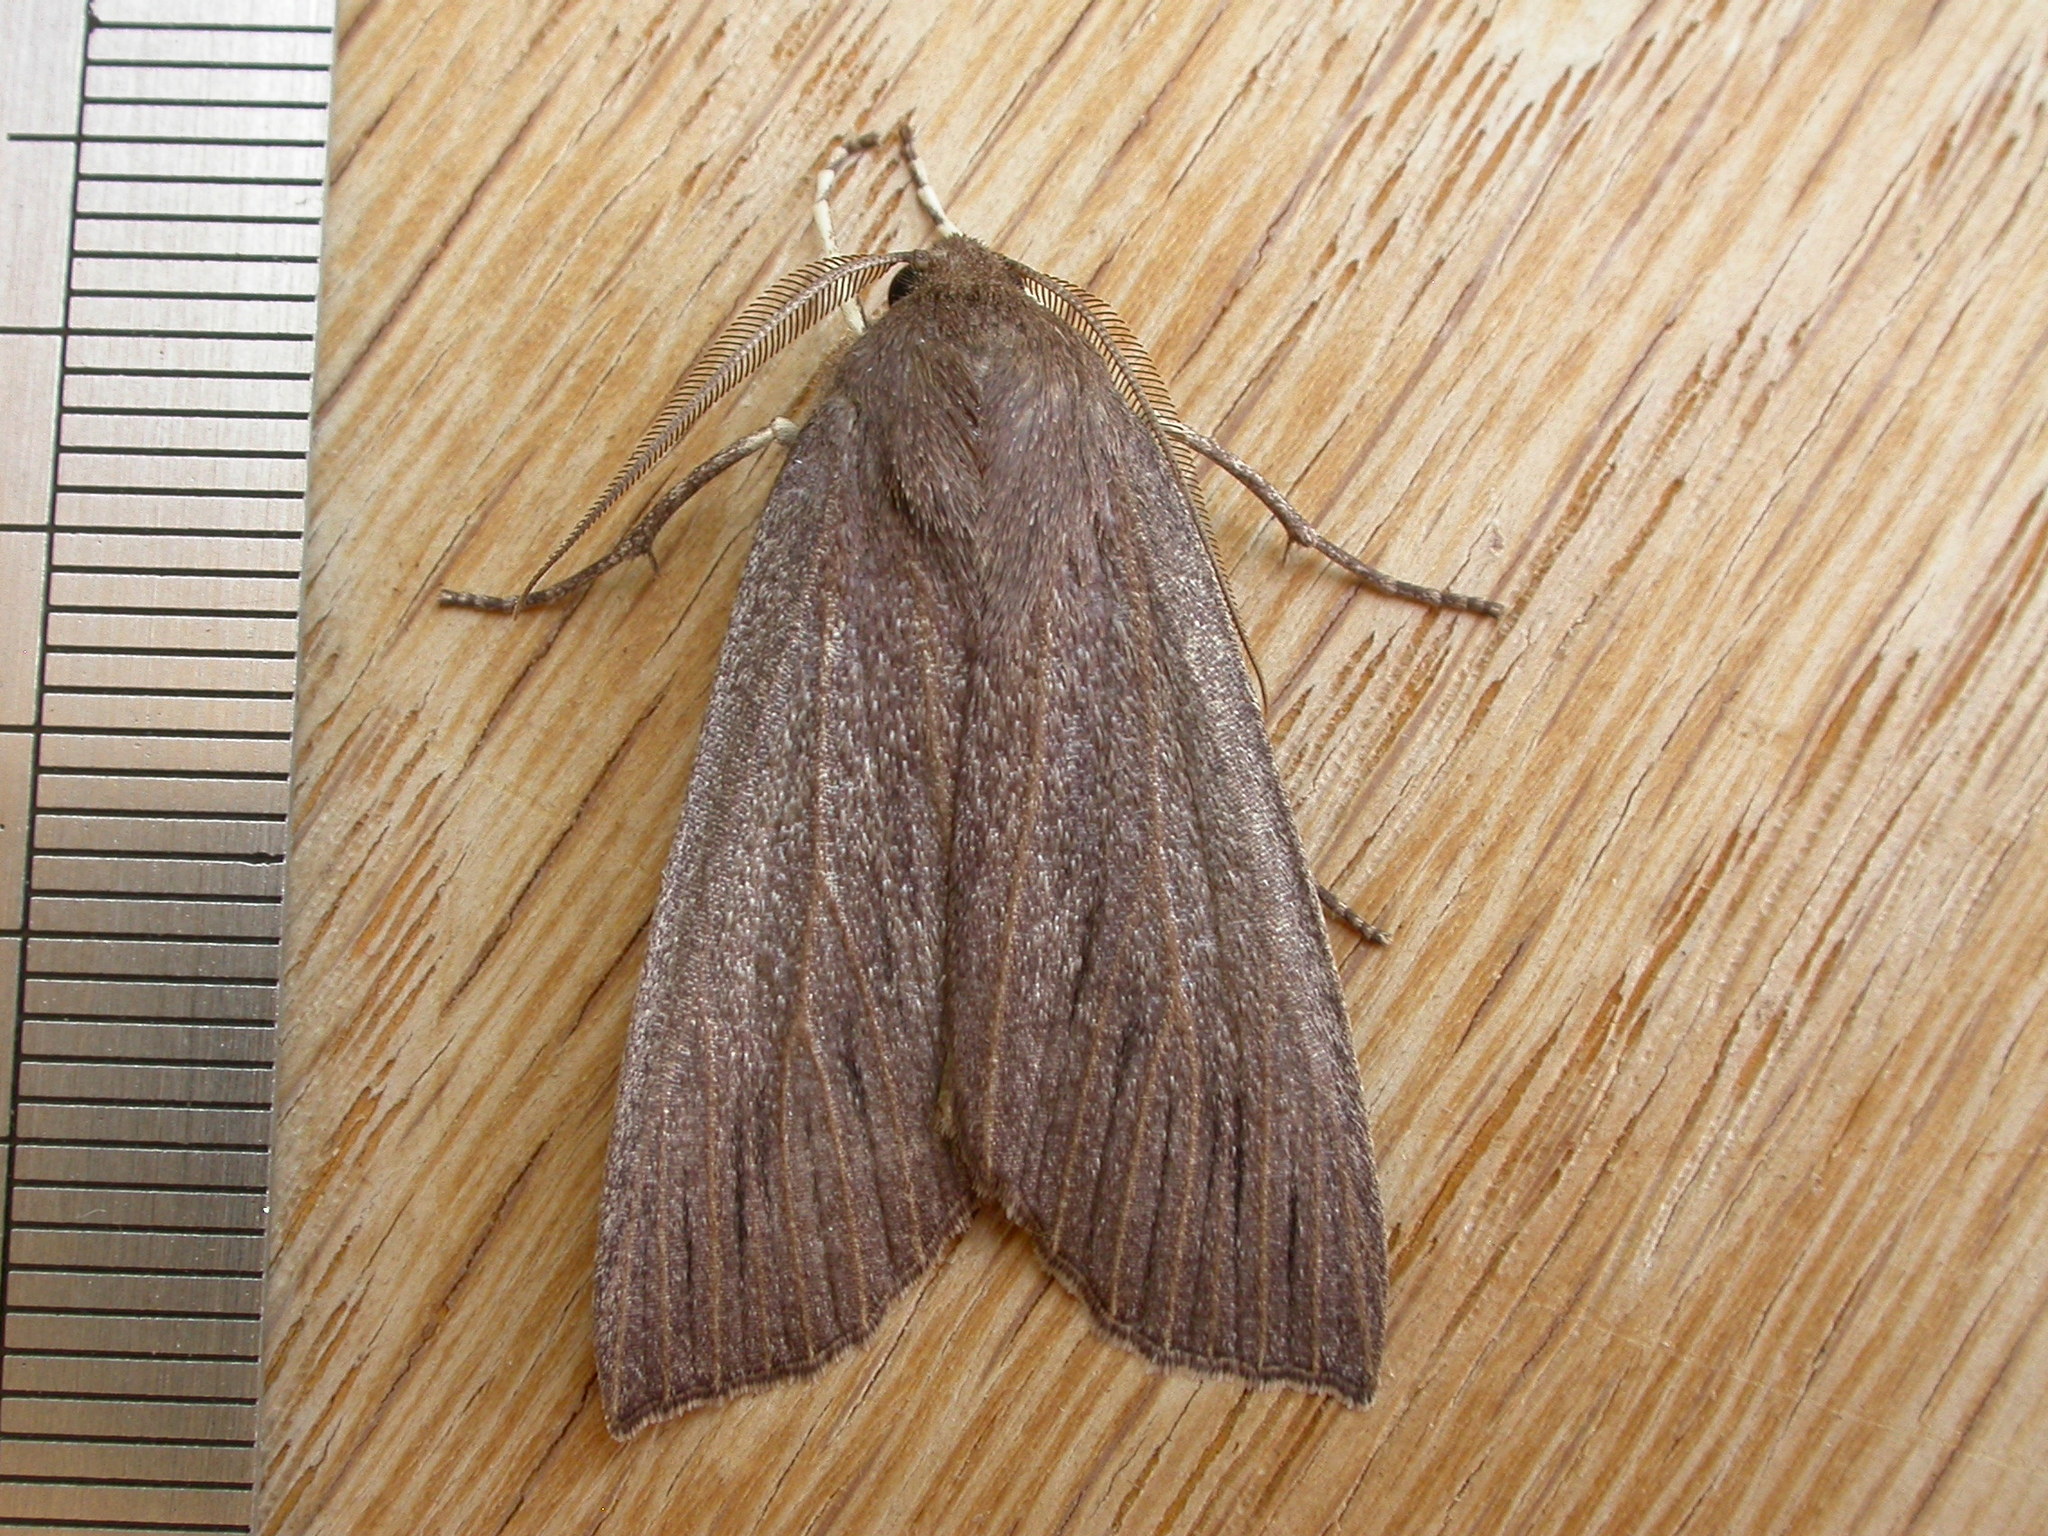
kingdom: Animalia
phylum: Arthropoda
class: Insecta
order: Lepidoptera
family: Geometridae
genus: Palleopa
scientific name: Palleopa innotata
